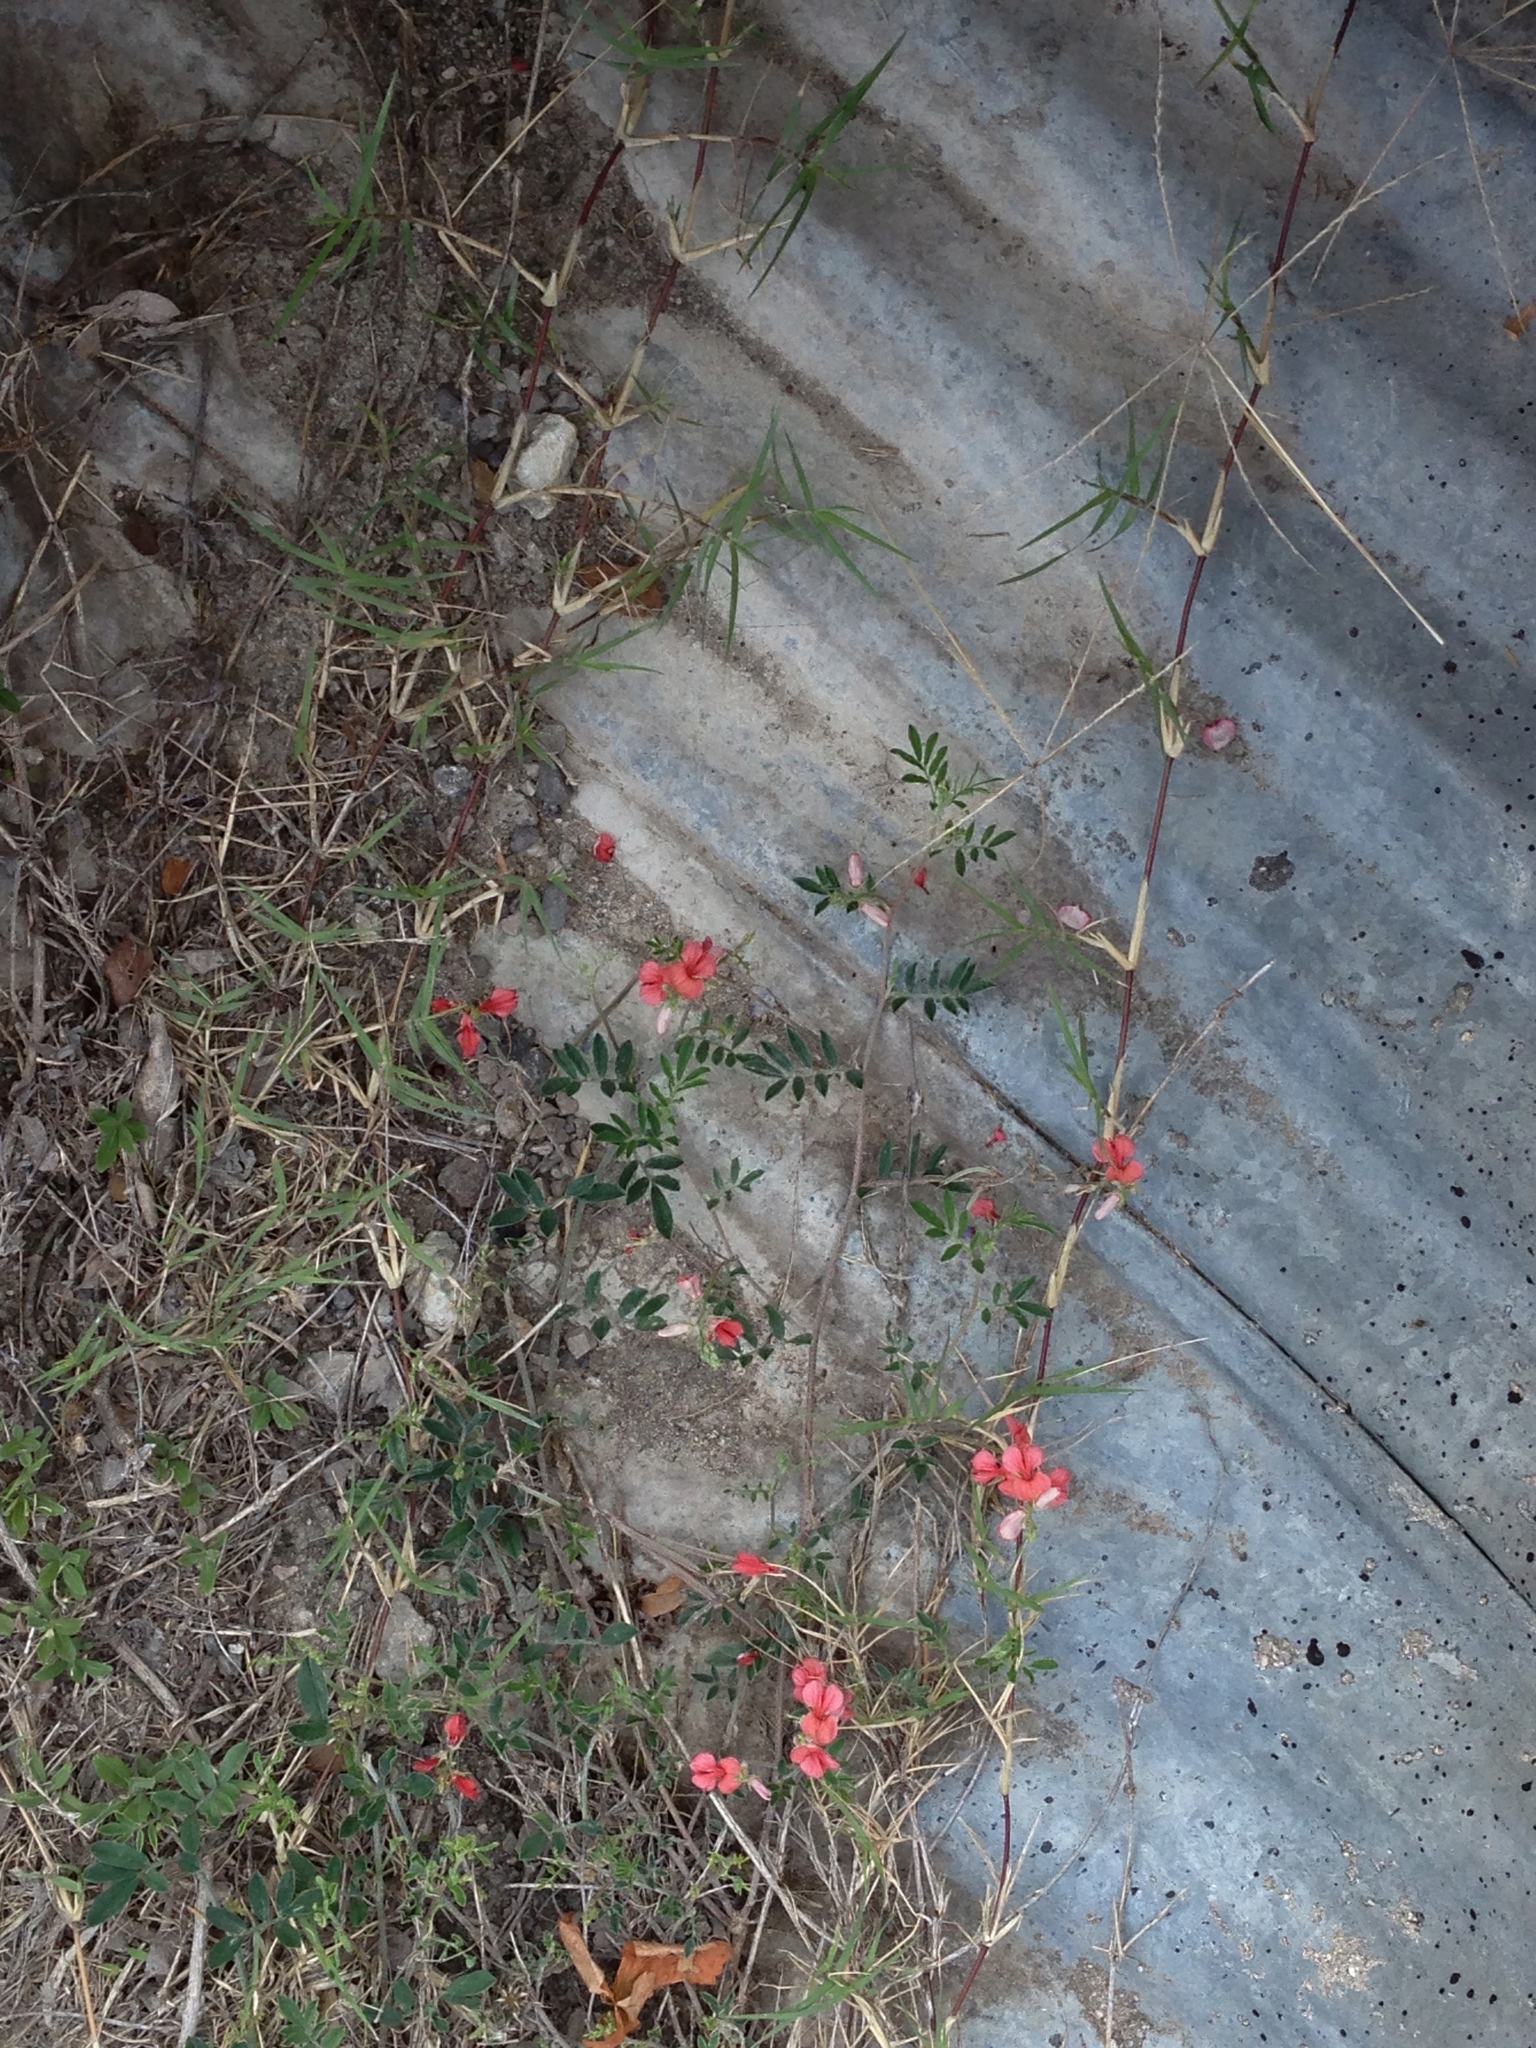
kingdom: Plantae
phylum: Tracheophyta
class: Magnoliopsida
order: Fabales
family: Fabaceae
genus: Indigofera
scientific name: Indigofera miniata
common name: Coast indigo
